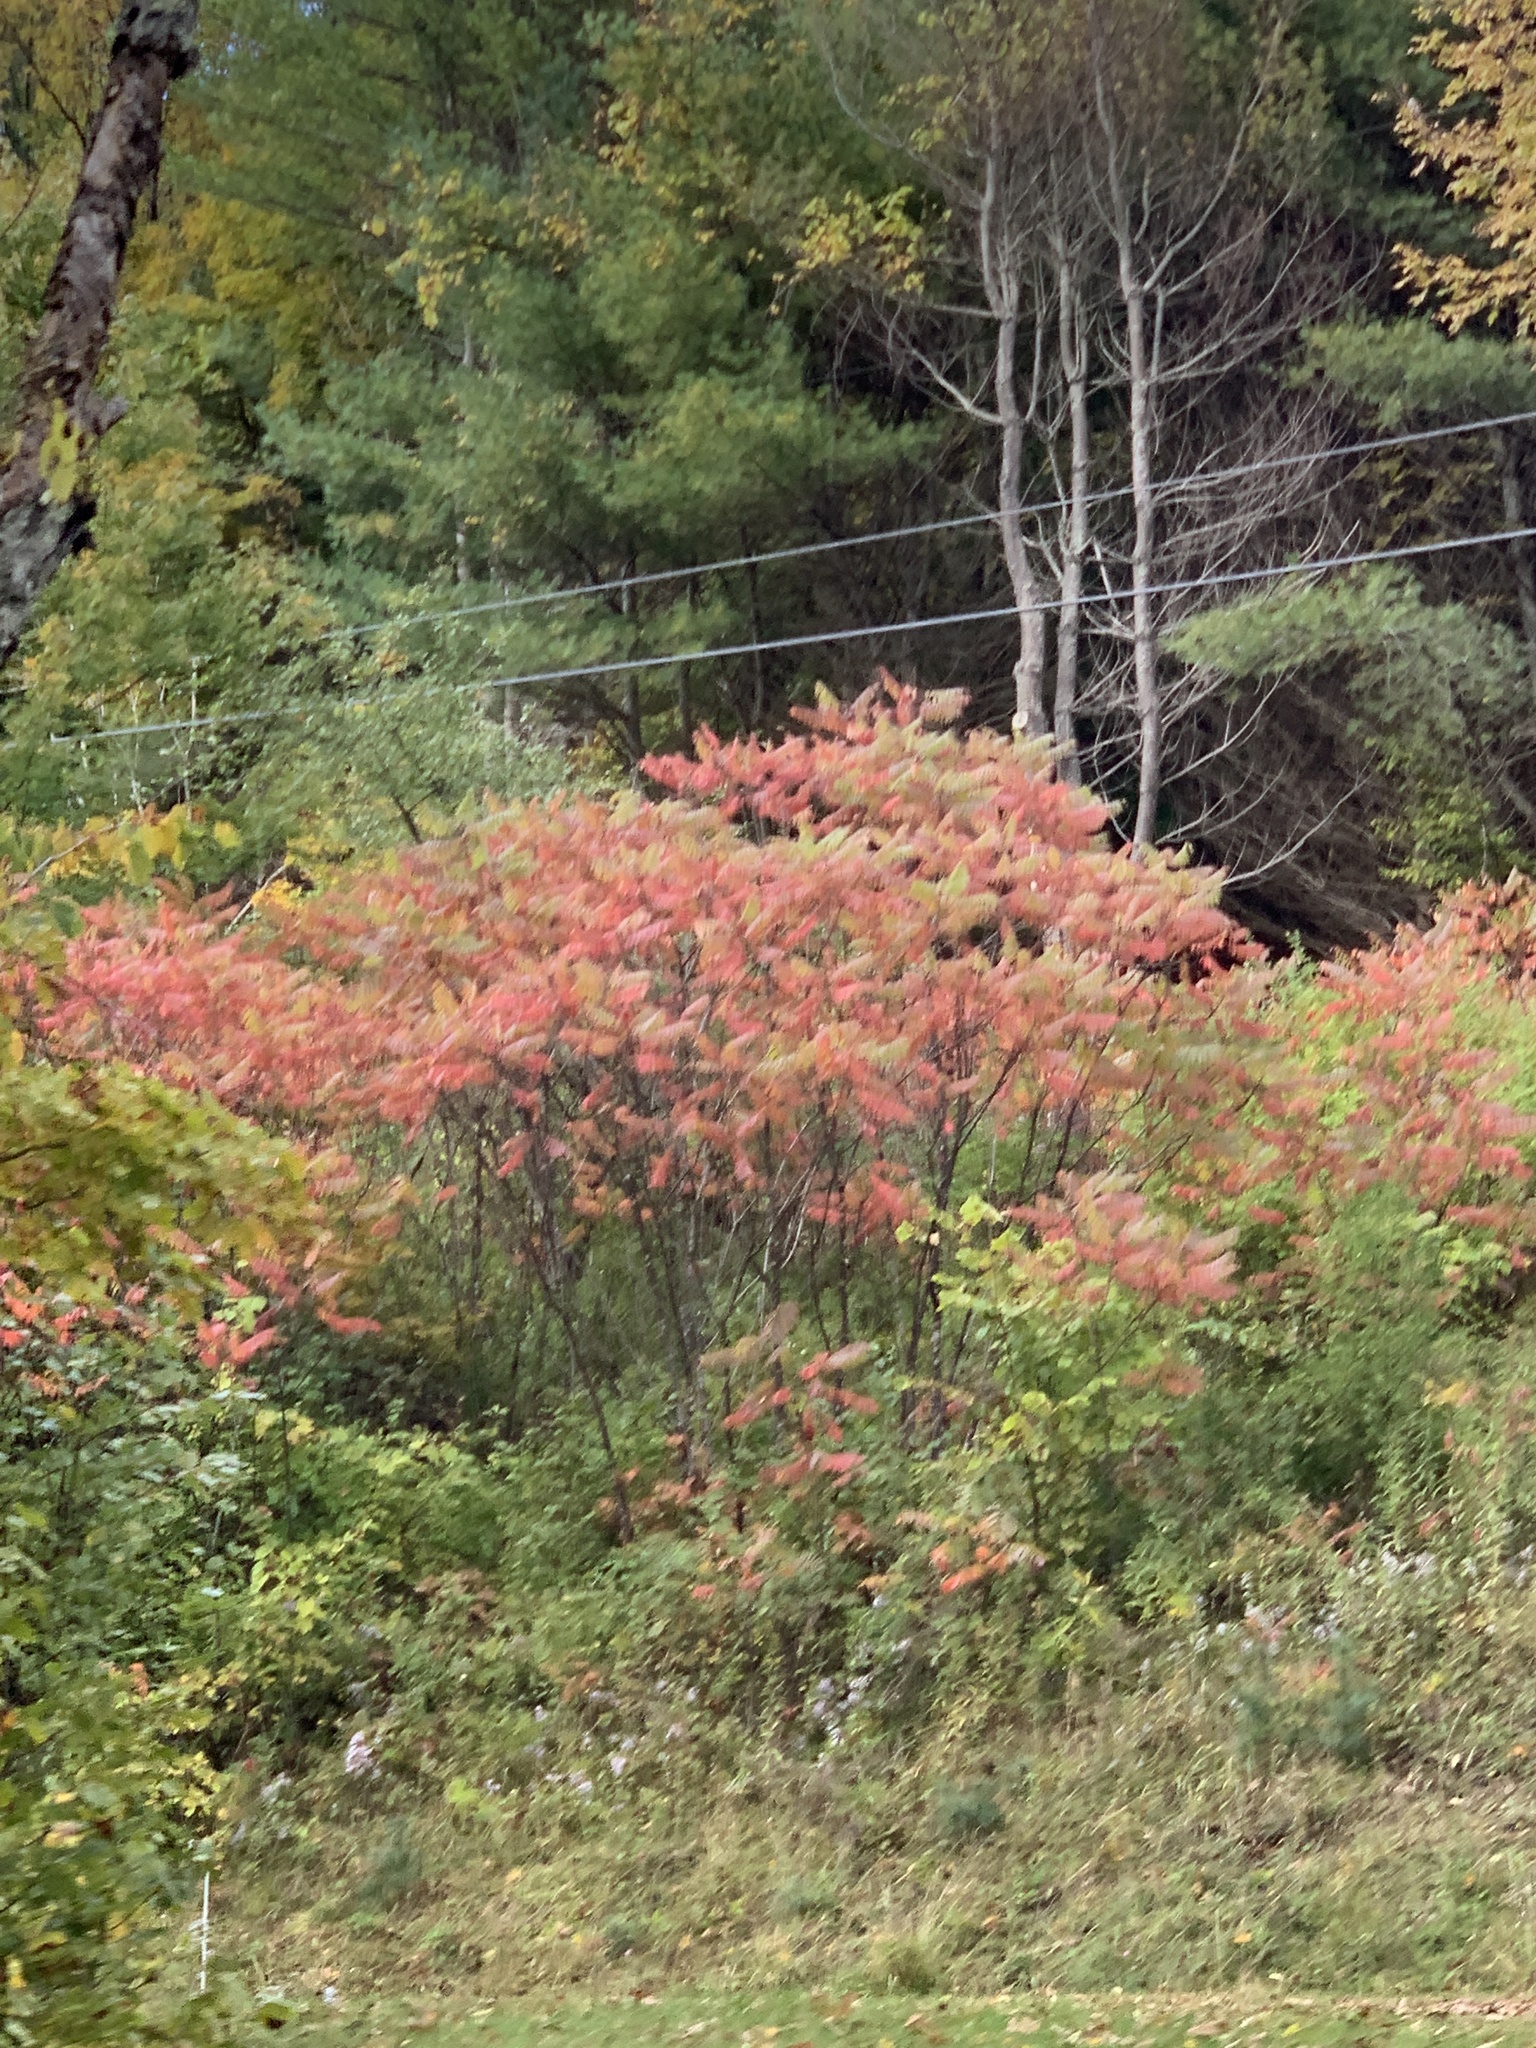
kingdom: Plantae
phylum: Tracheophyta
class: Magnoliopsida
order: Sapindales
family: Anacardiaceae
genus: Rhus
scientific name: Rhus typhina
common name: Staghorn sumac
